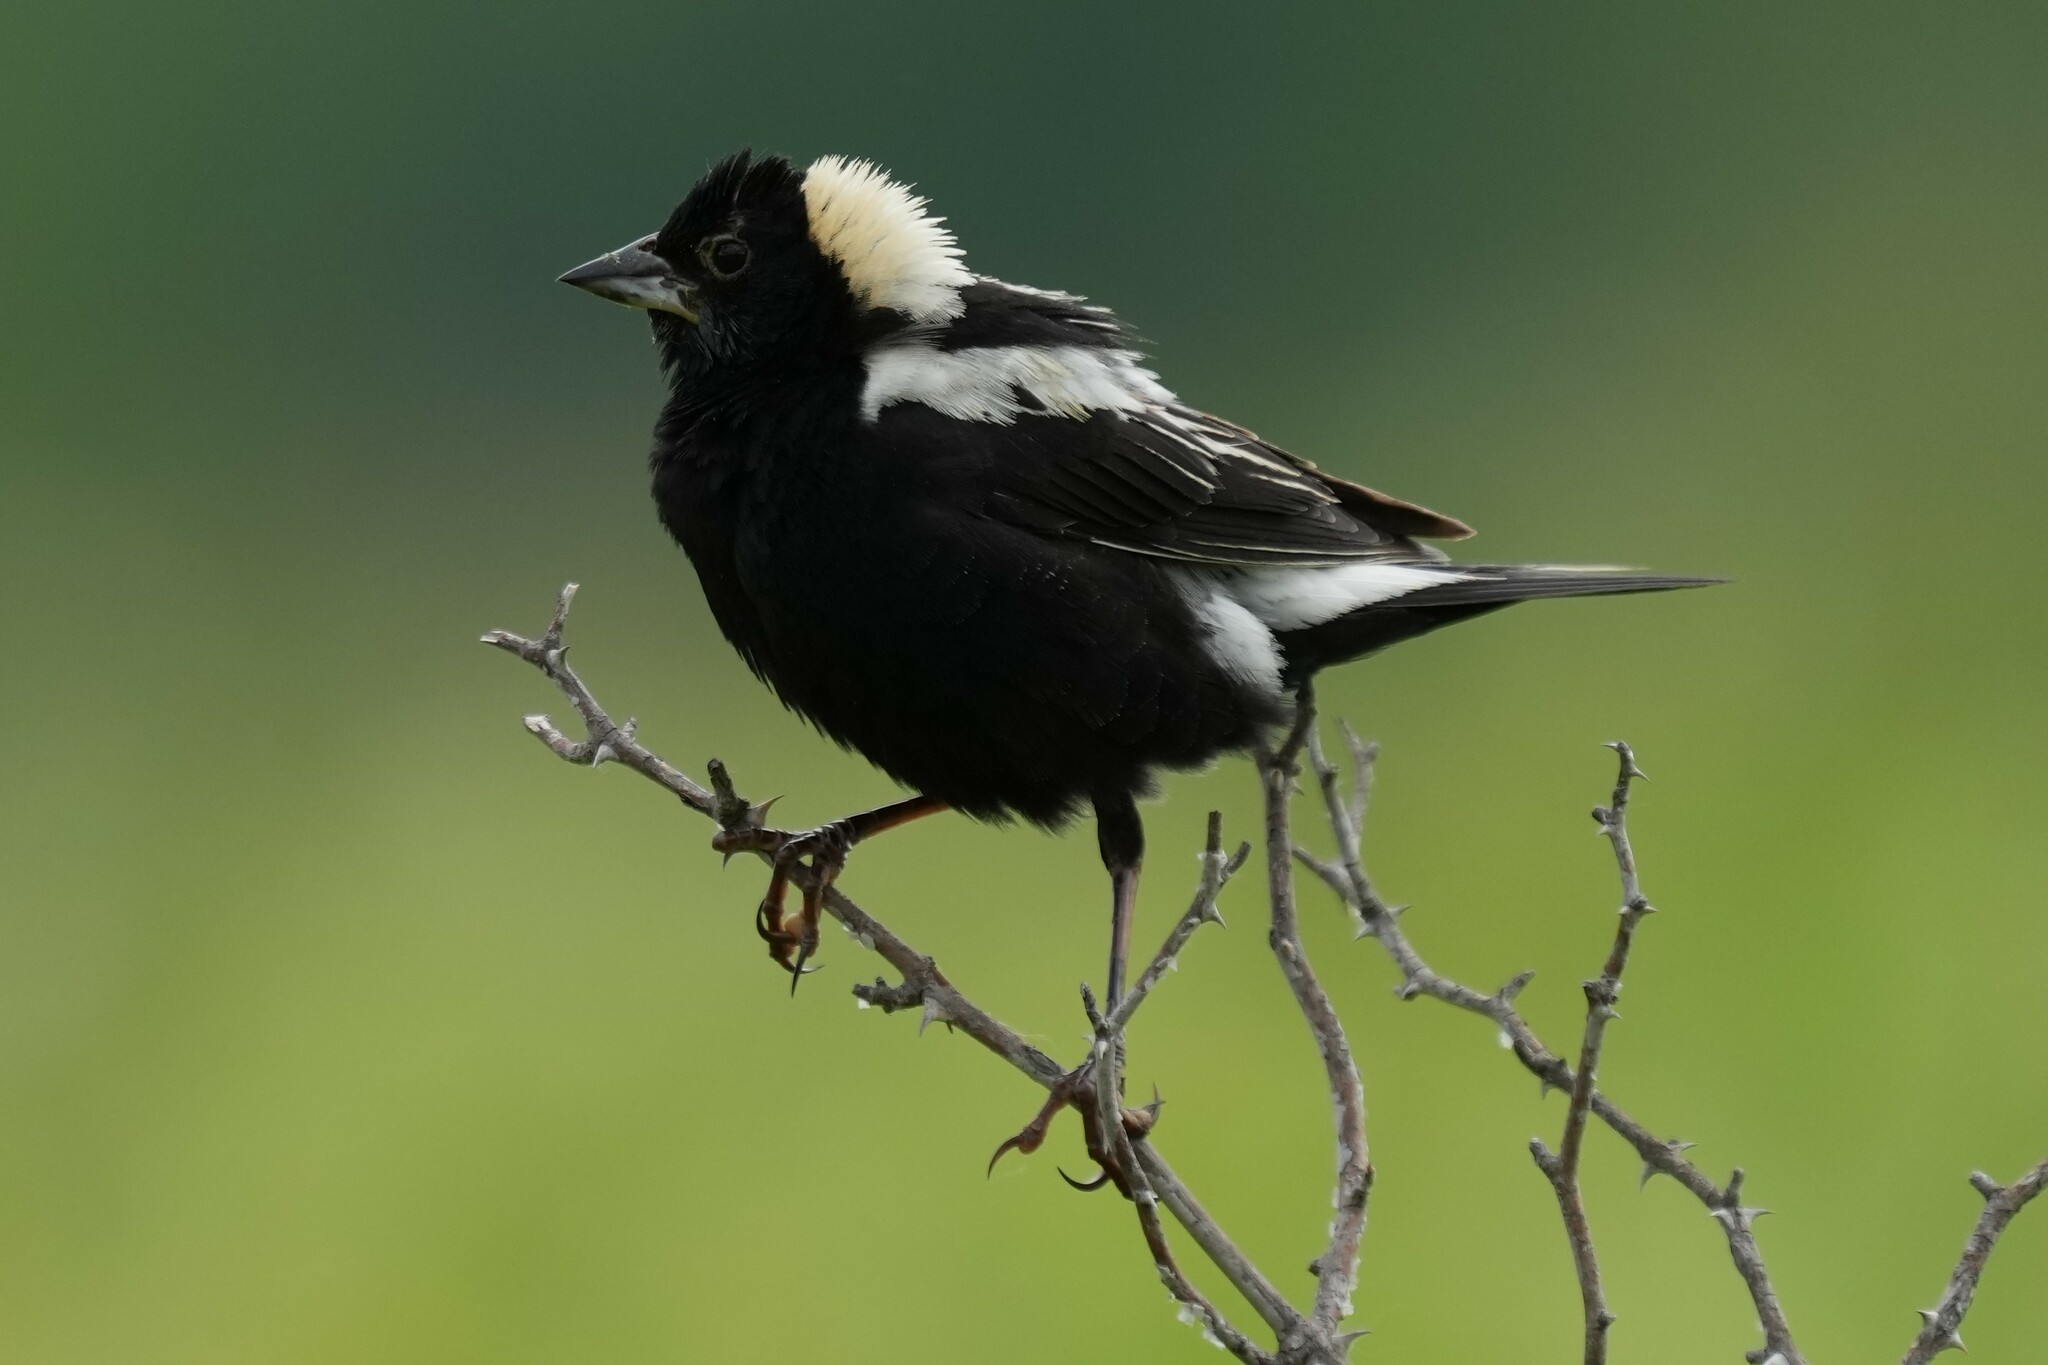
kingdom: Animalia
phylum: Chordata
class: Aves
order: Passeriformes
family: Icteridae
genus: Dolichonyx
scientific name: Dolichonyx oryzivorus
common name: Bobolink
